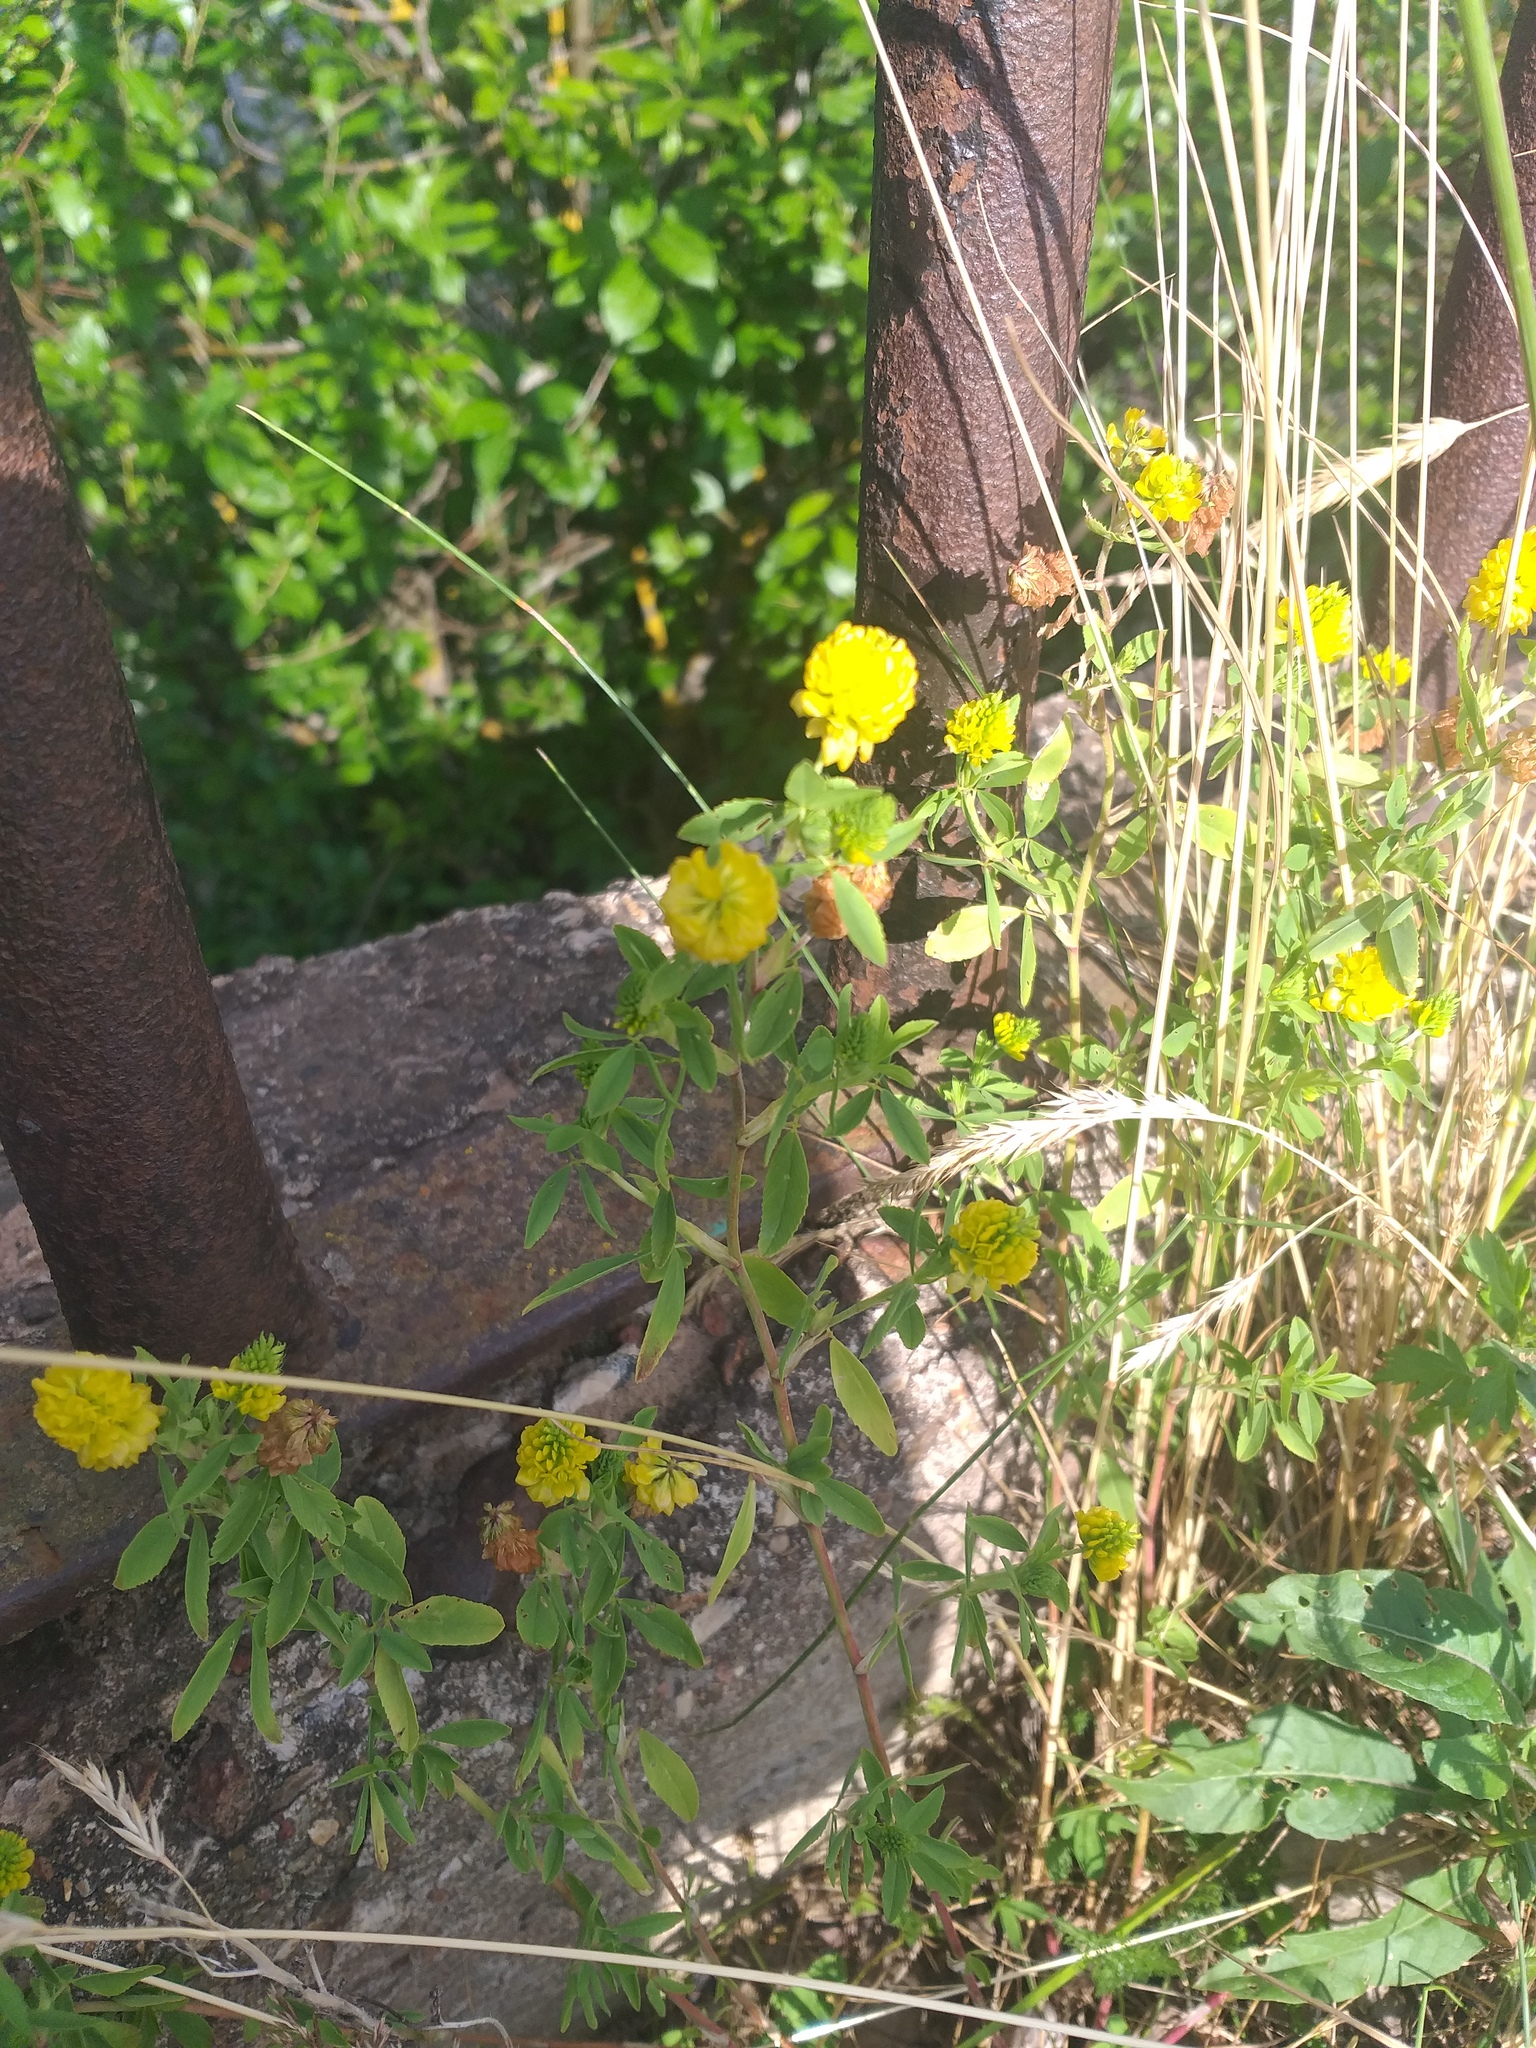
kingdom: Plantae
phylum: Tracheophyta
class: Magnoliopsida
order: Fabales
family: Fabaceae
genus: Trifolium
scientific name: Trifolium aureum
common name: Golden clover
